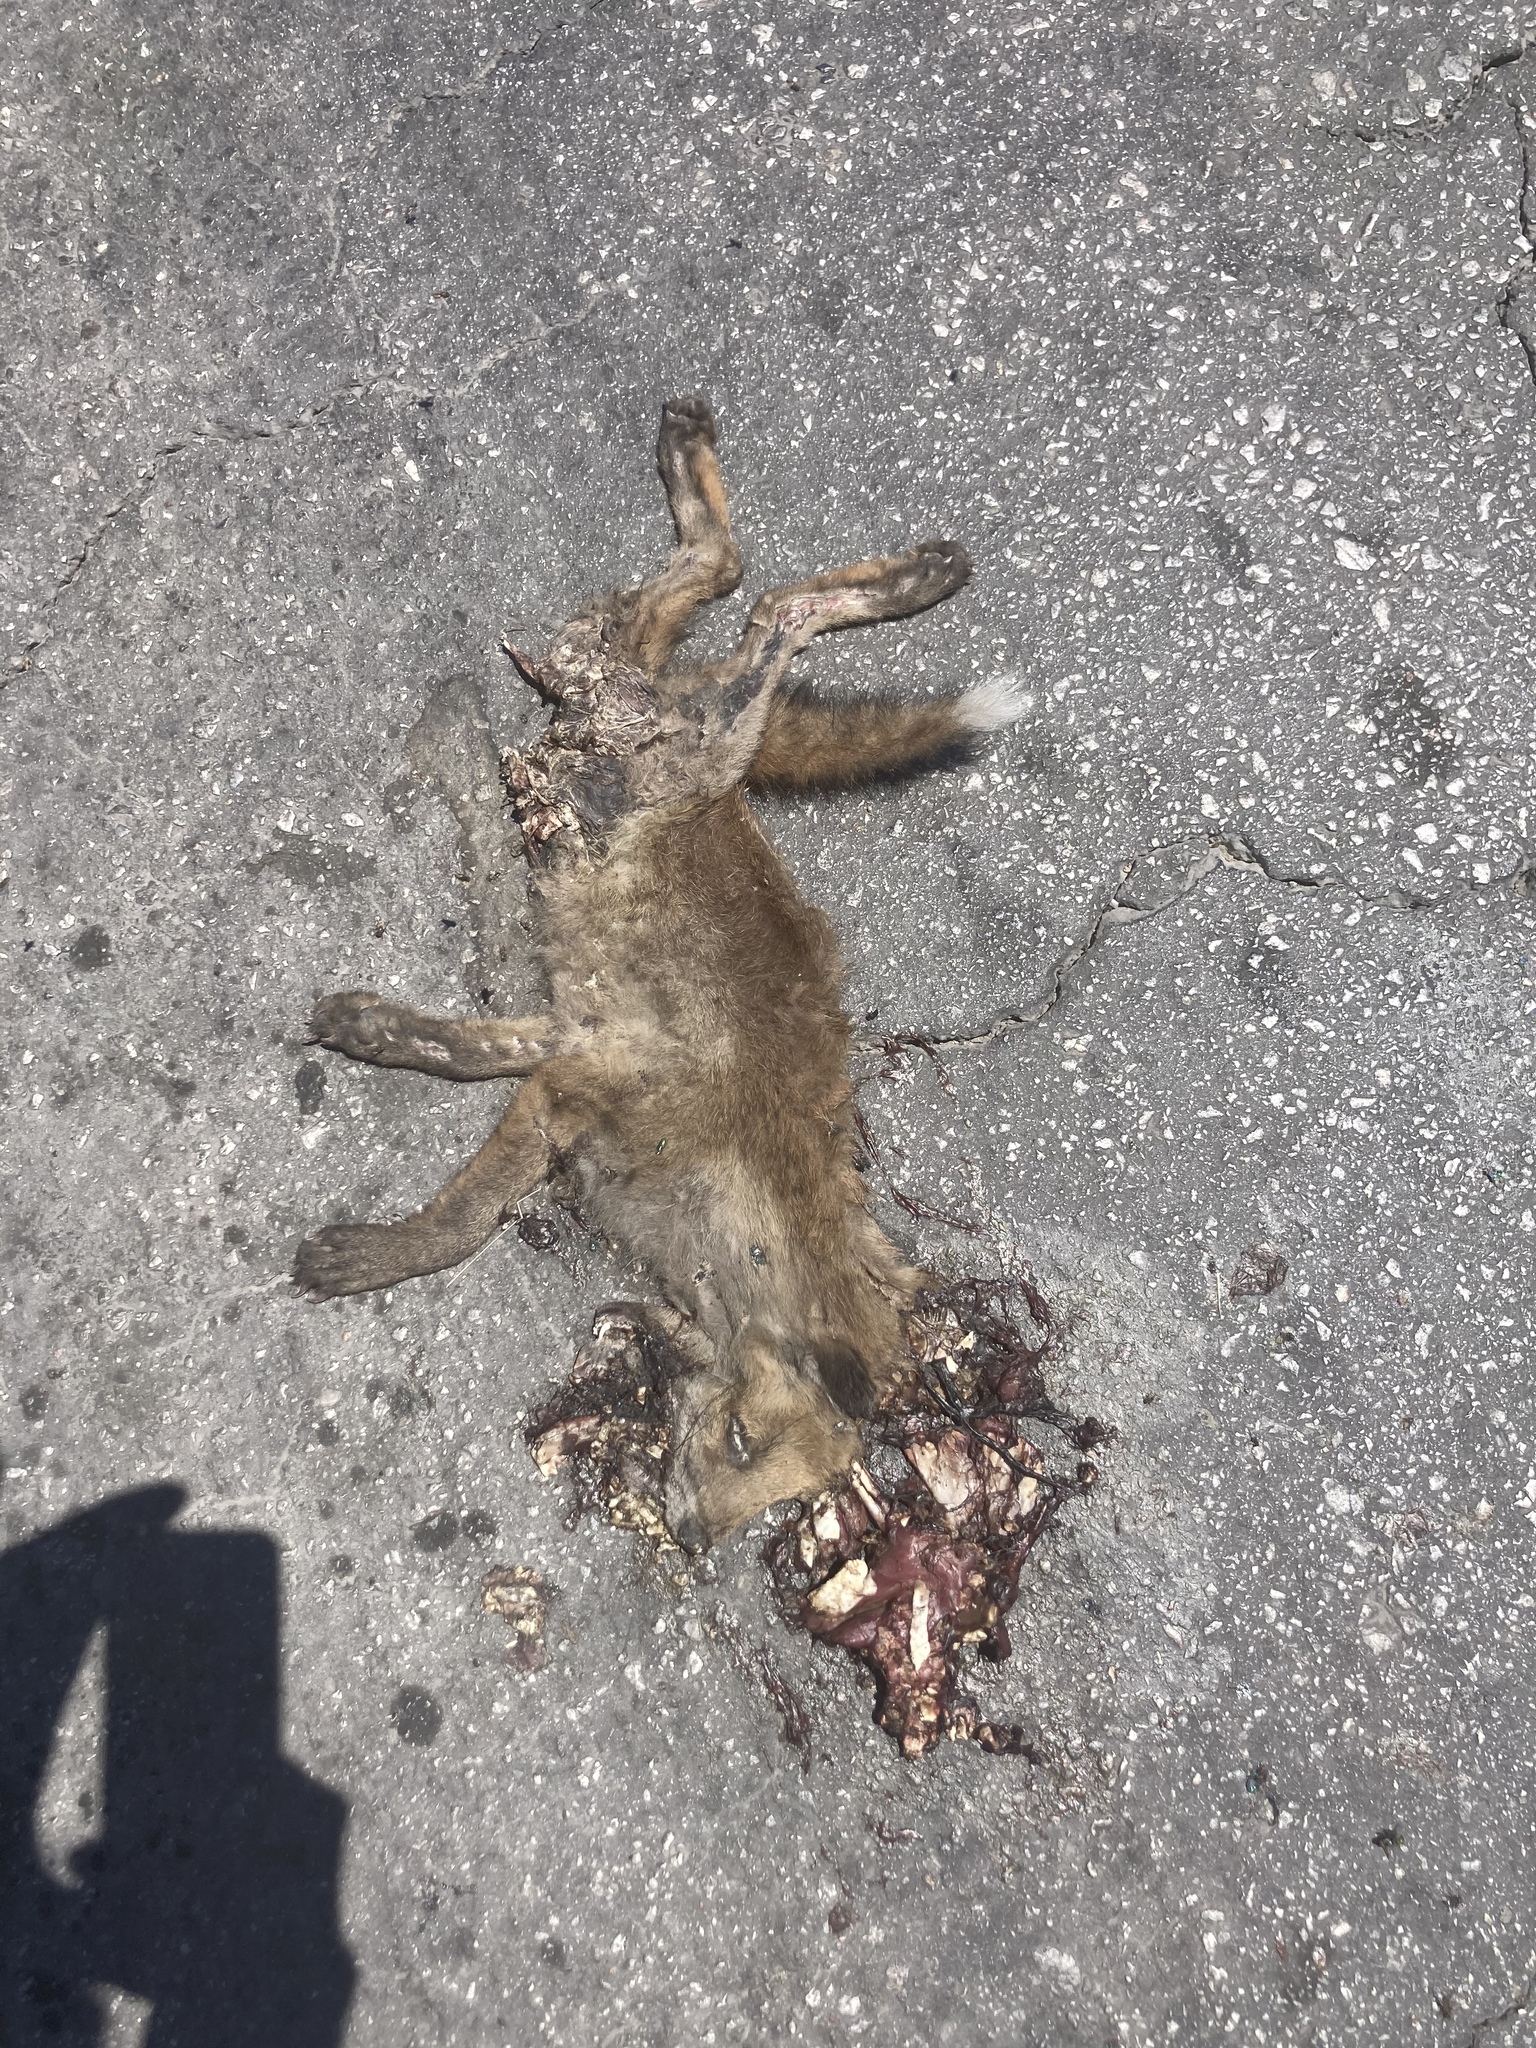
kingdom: Animalia
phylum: Chordata
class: Mammalia
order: Carnivora
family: Canidae
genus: Vulpes
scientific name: Vulpes vulpes
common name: Red fox
